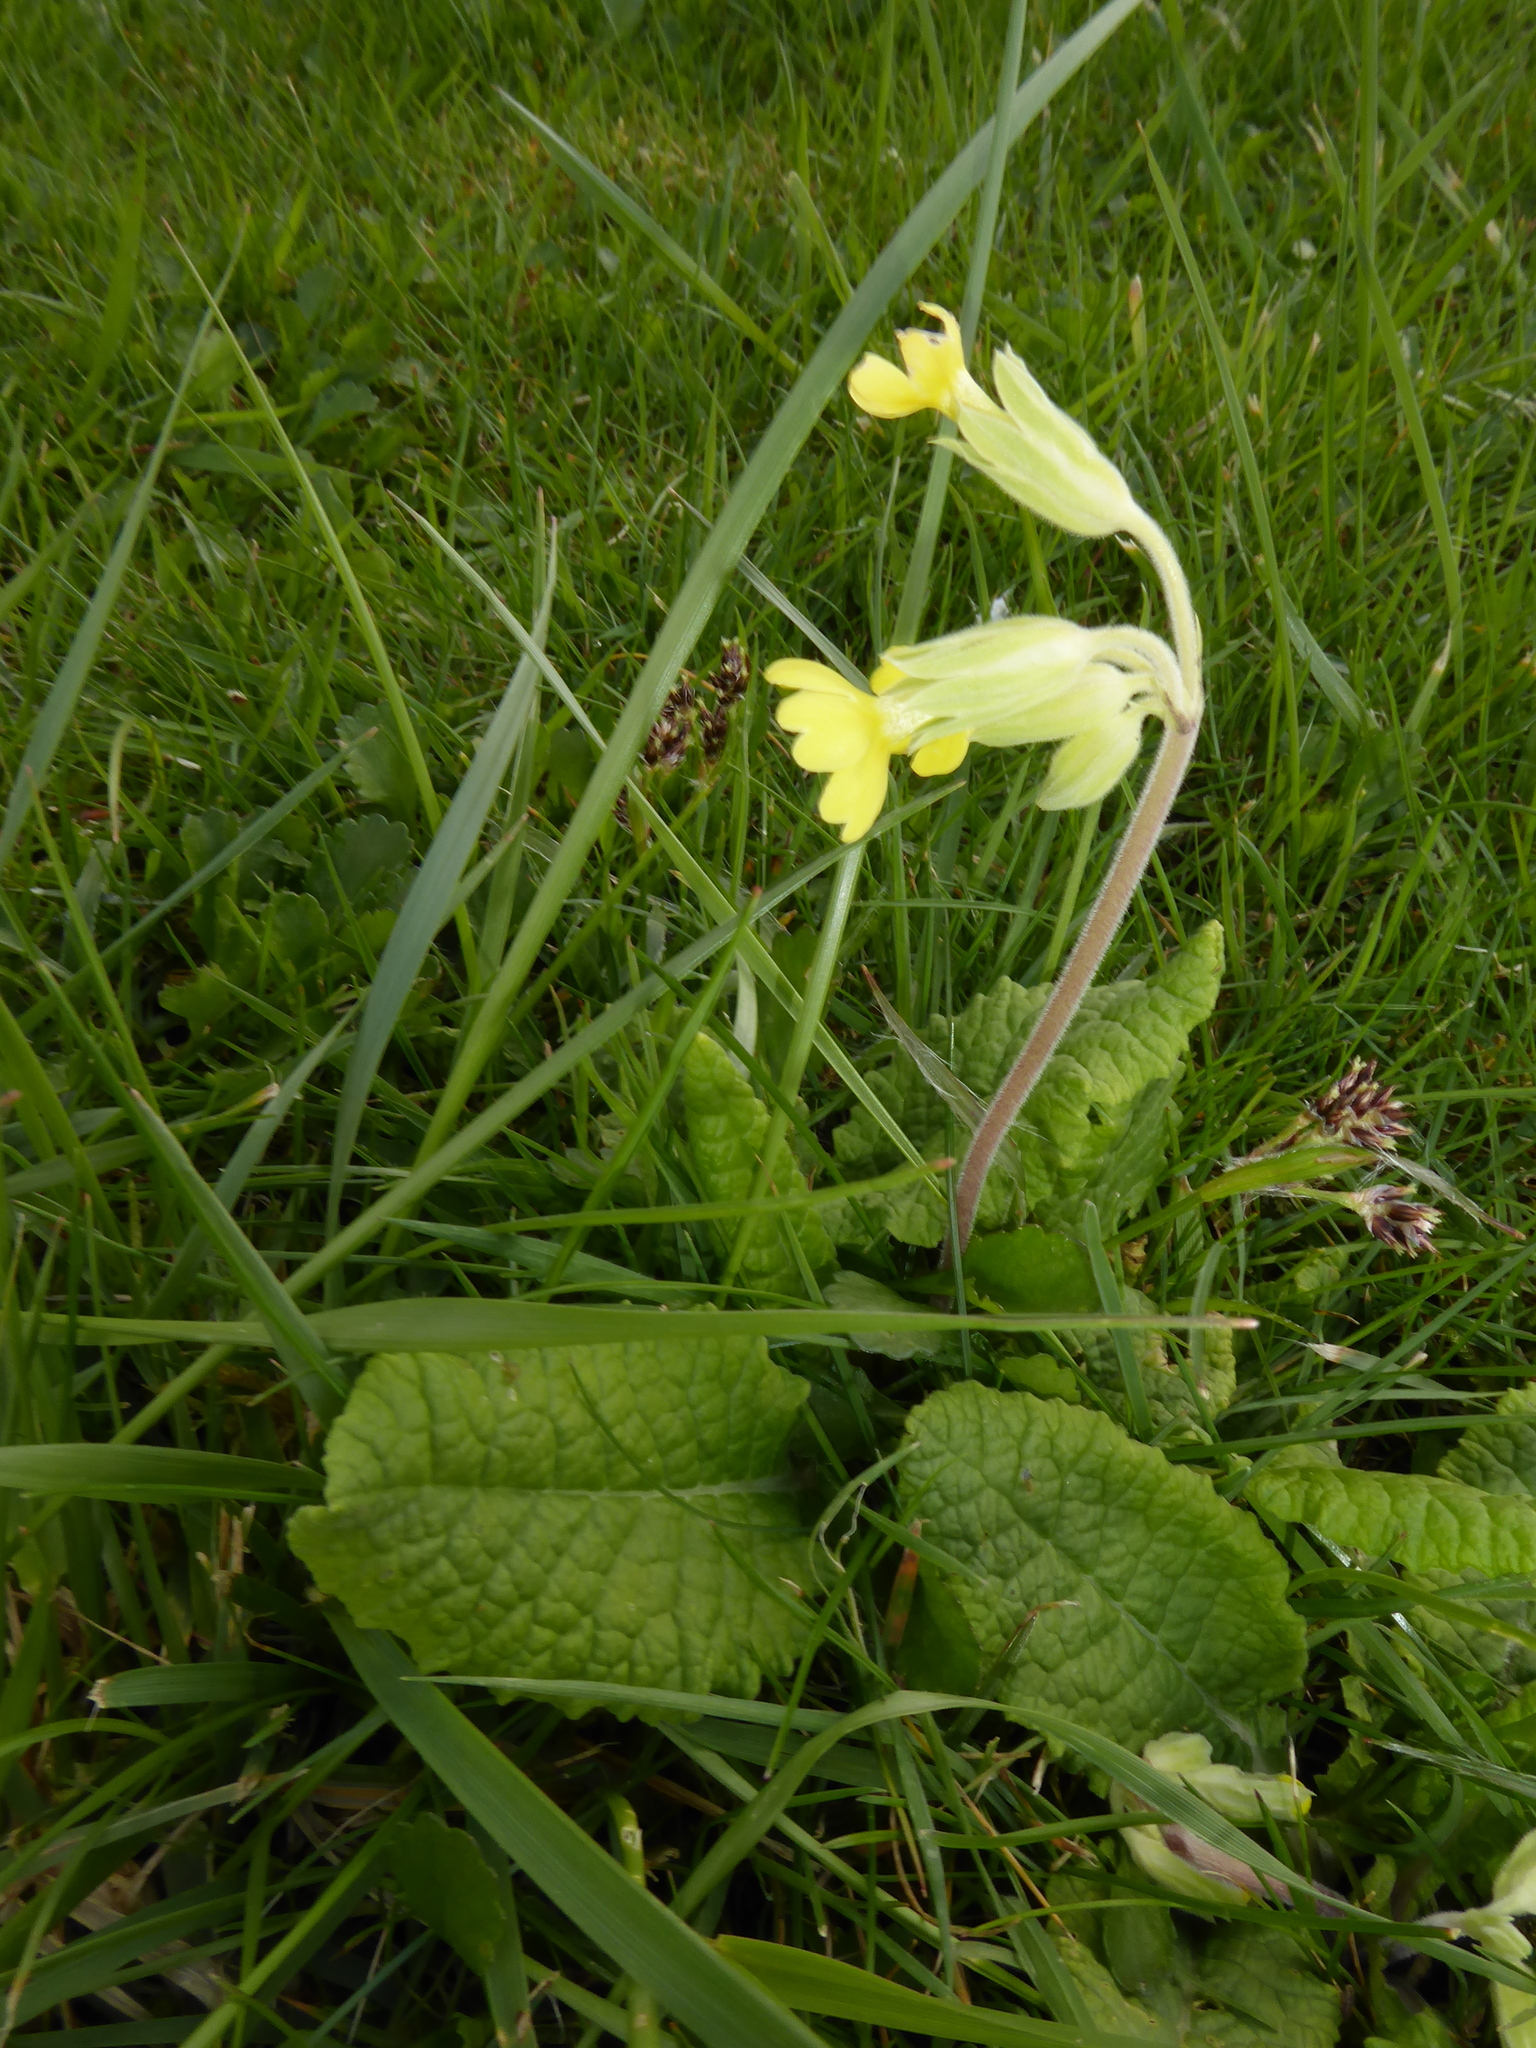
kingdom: Plantae
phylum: Tracheophyta
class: Magnoliopsida
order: Ericales
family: Primulaceae
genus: Primula
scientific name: Primula veris
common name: Cowslip
